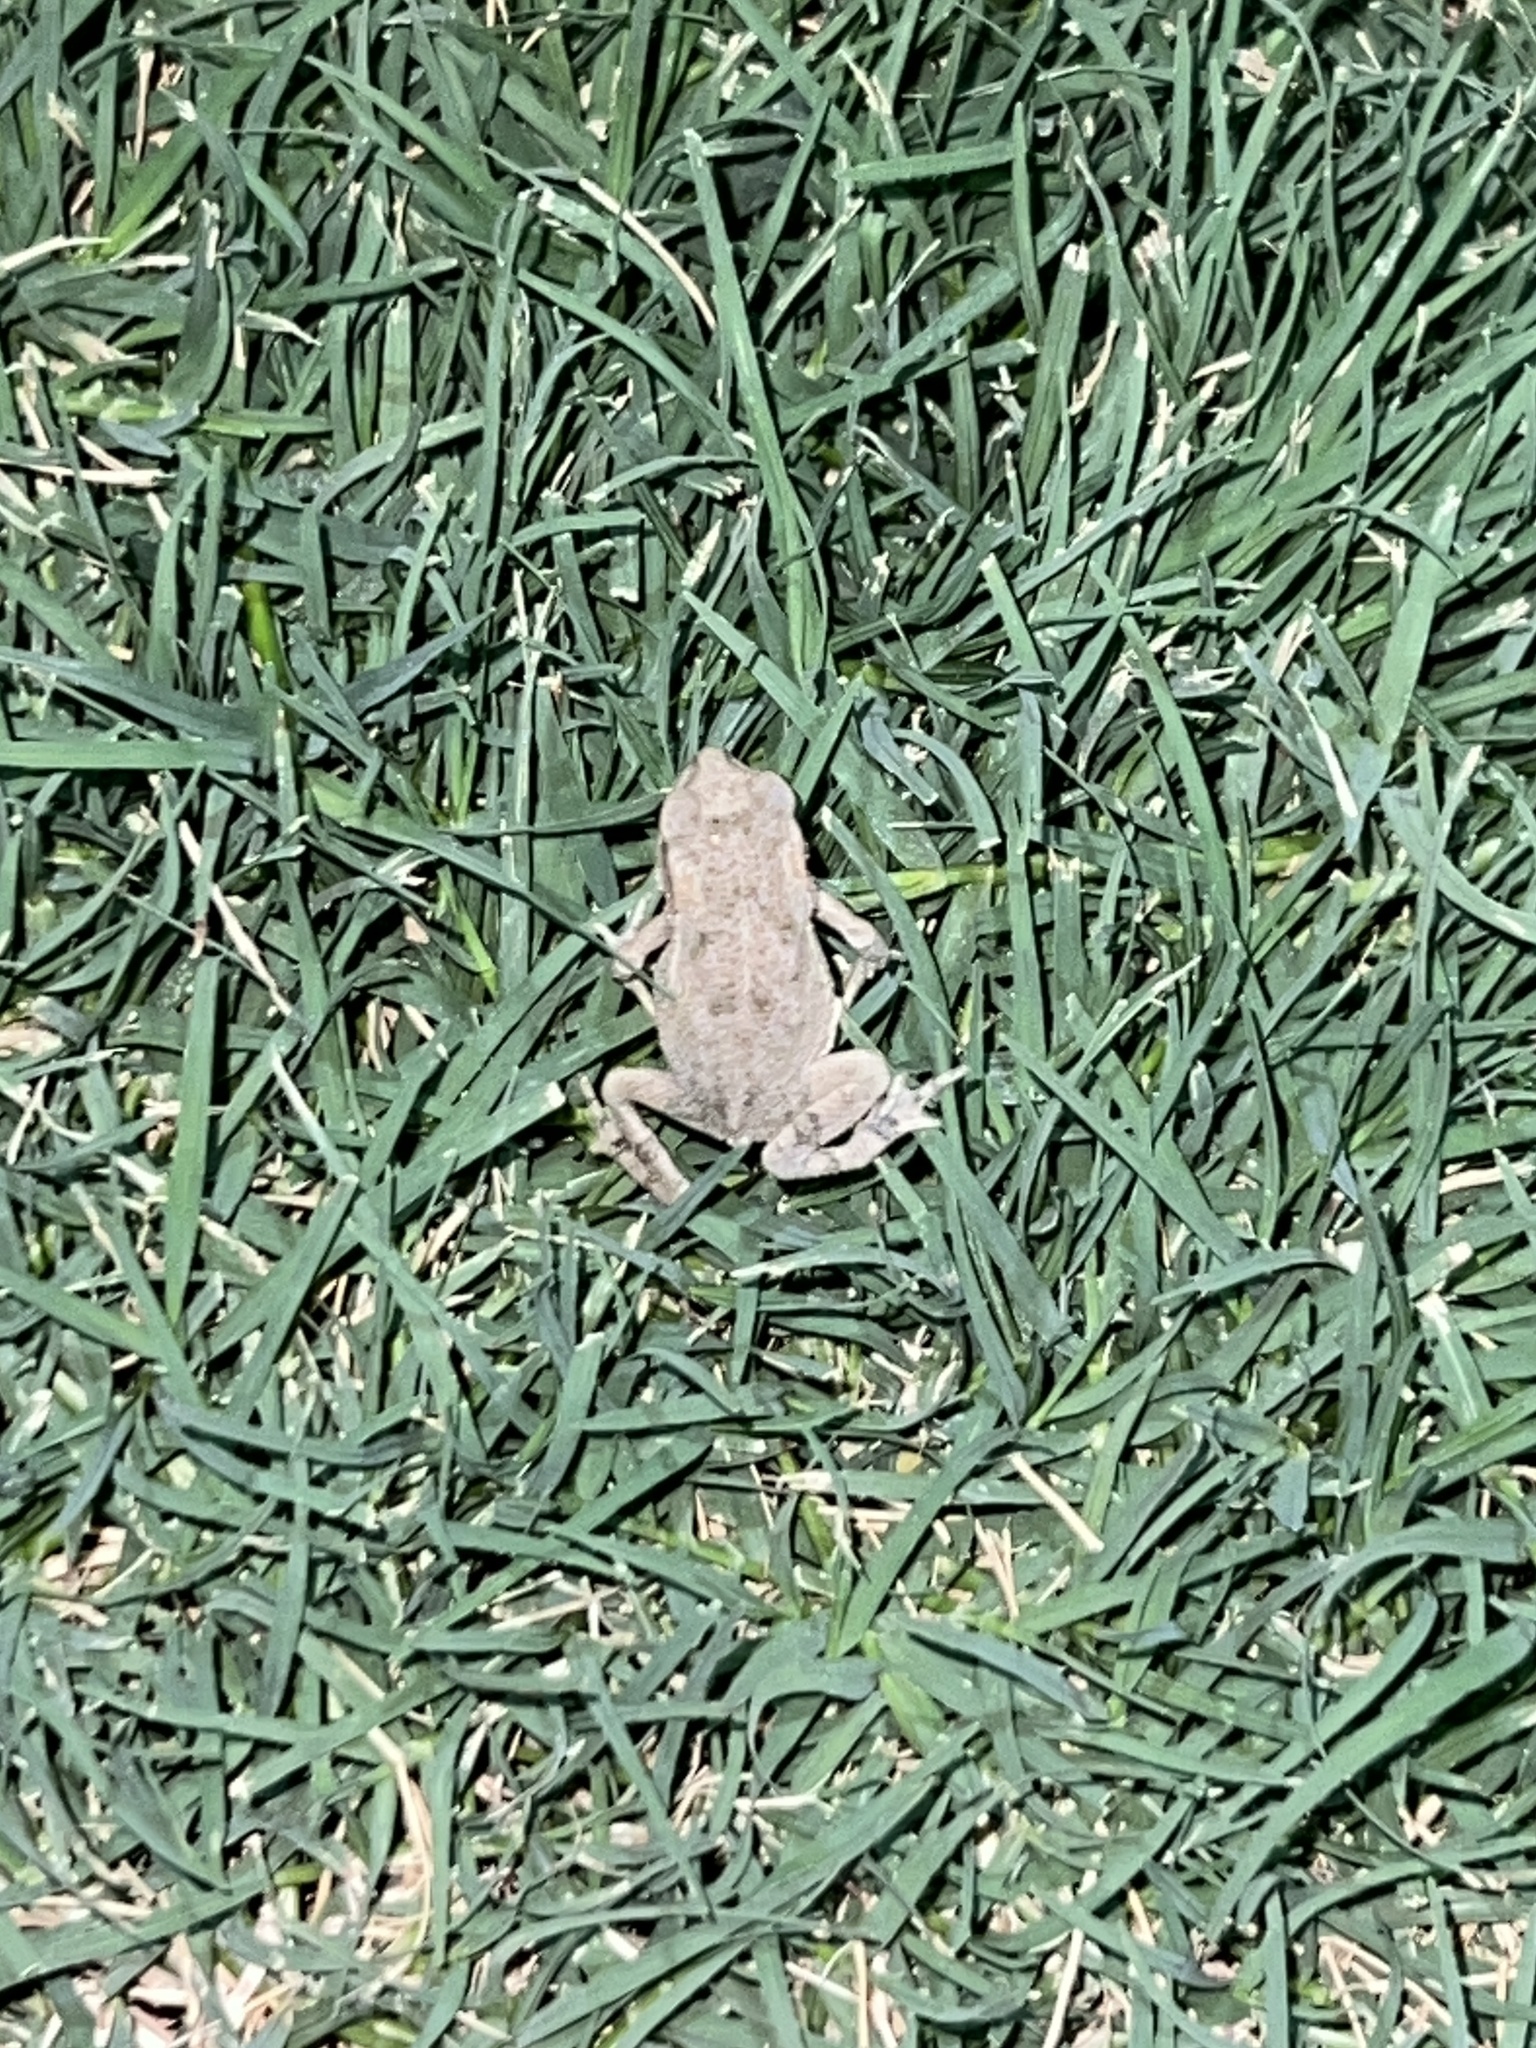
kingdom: Animalia
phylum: Chordata
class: Amphibia
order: Anura
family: Bufonidae
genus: Incilius
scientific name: Incilius nebulifer
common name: Gulf coast toad
